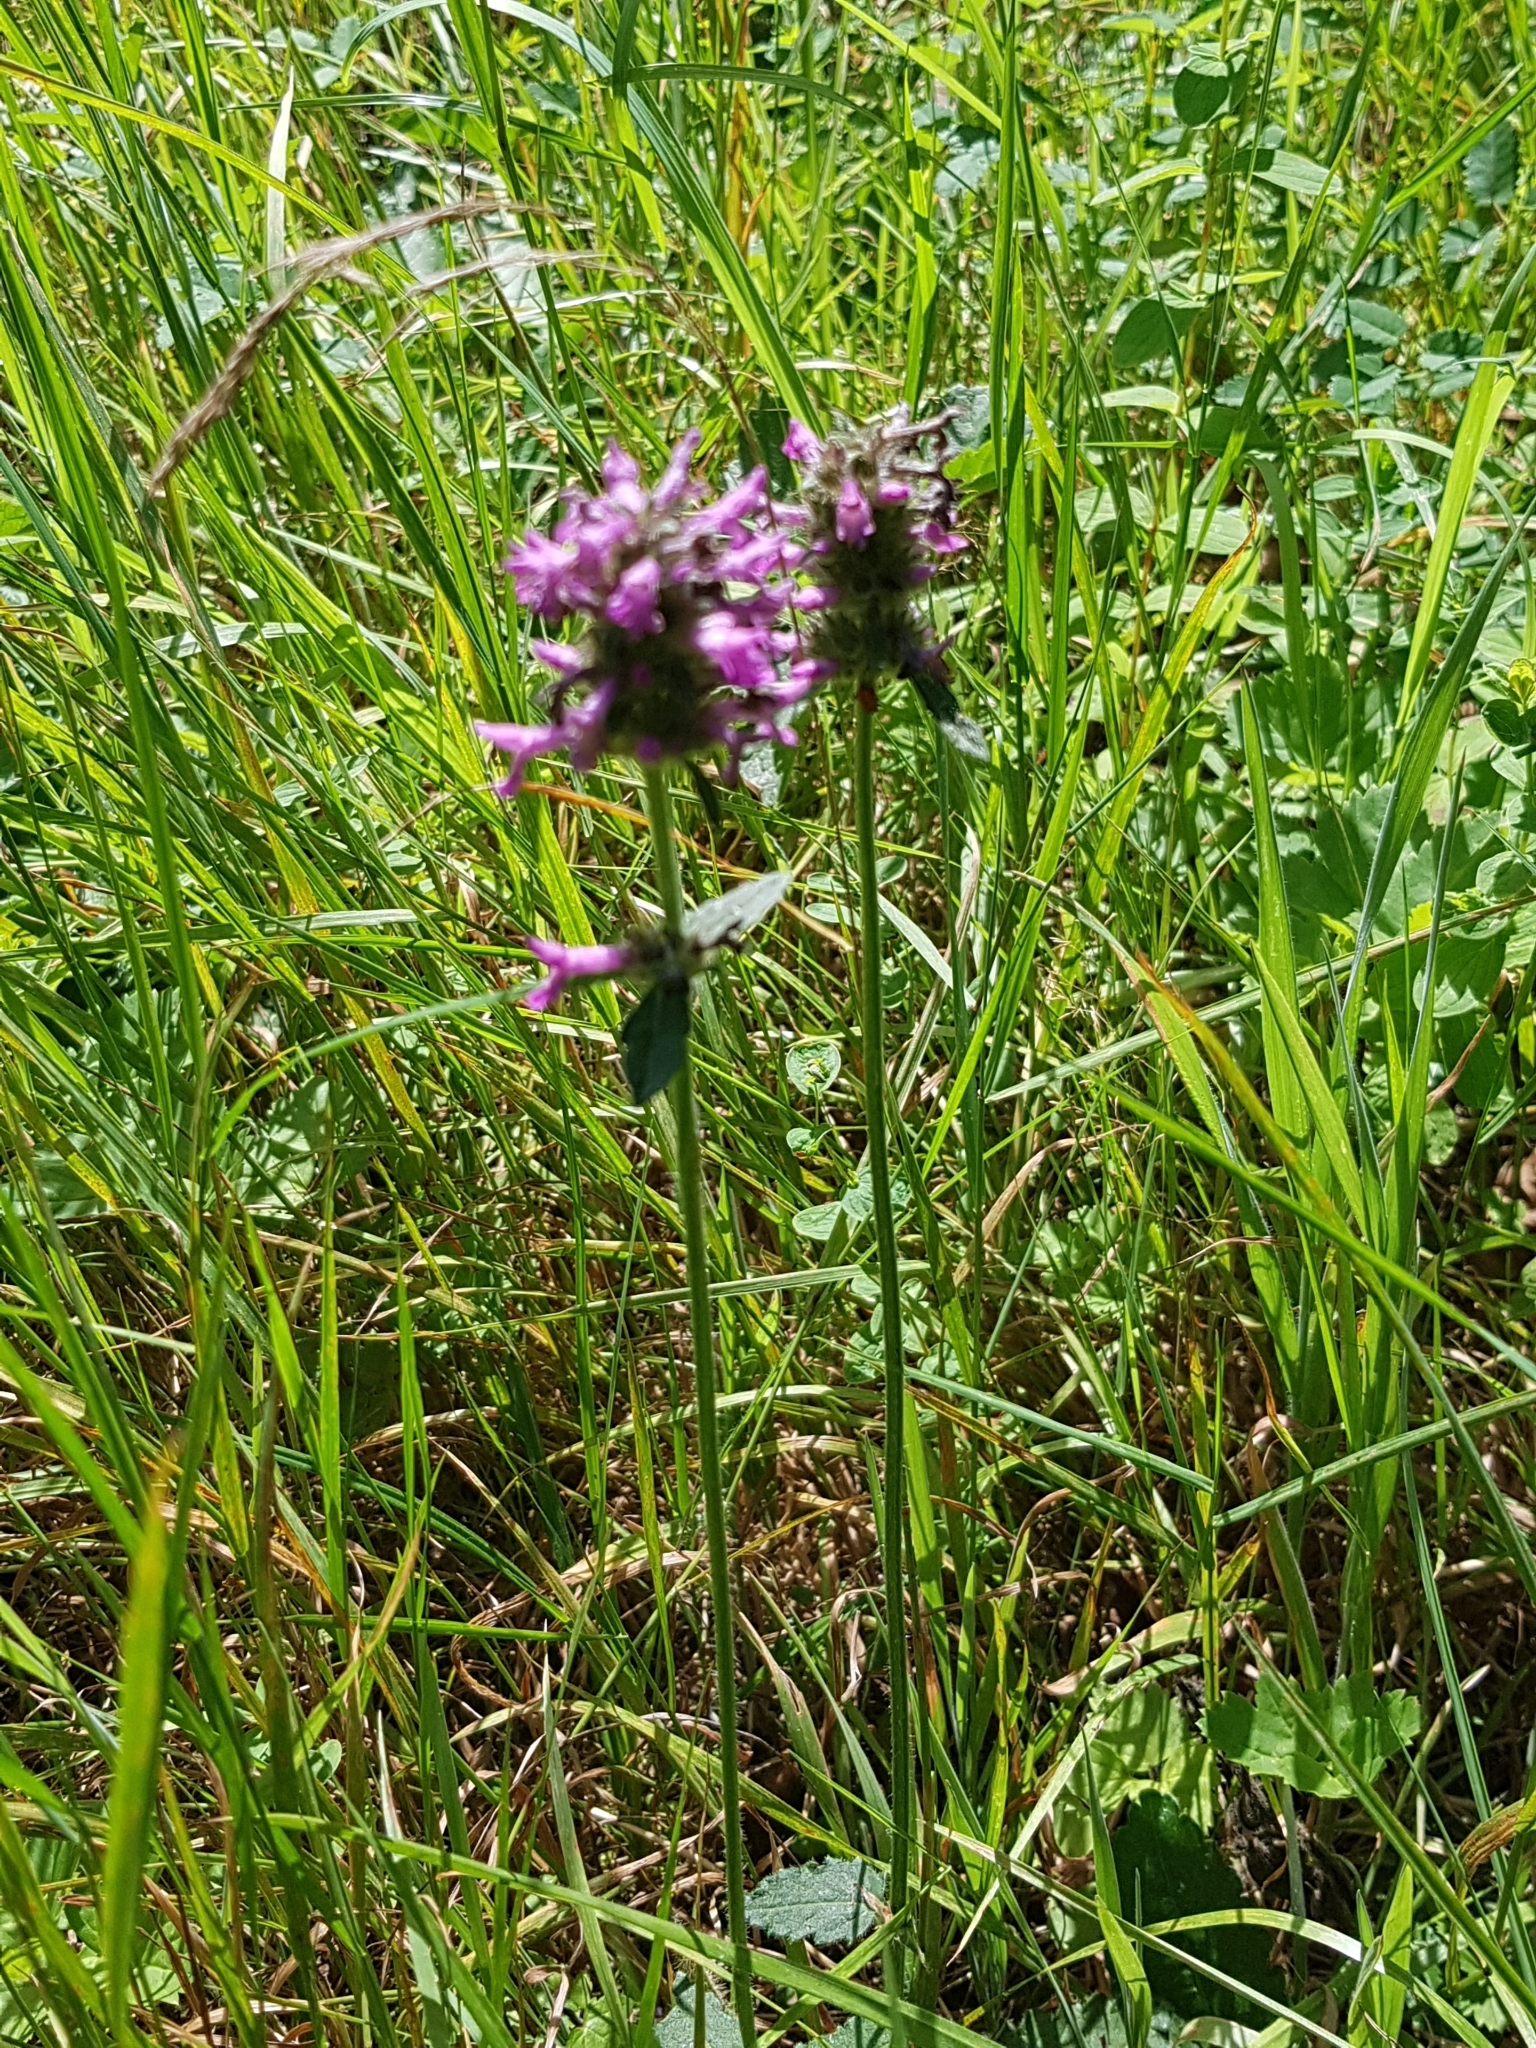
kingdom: Plantae
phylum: Tracheophyta
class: Magnoliopsida
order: Lamiales
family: Lamiaceae
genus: Betonica
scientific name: Betonica officinalis
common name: Bishop's-wort
